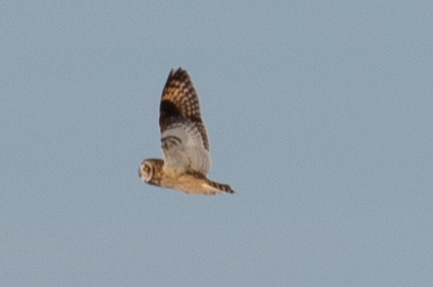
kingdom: Animalia
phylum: Chordata
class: Aves
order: Strigiformes
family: Strigidae
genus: Asio
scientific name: Asio flammeus
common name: Short-eared owl
